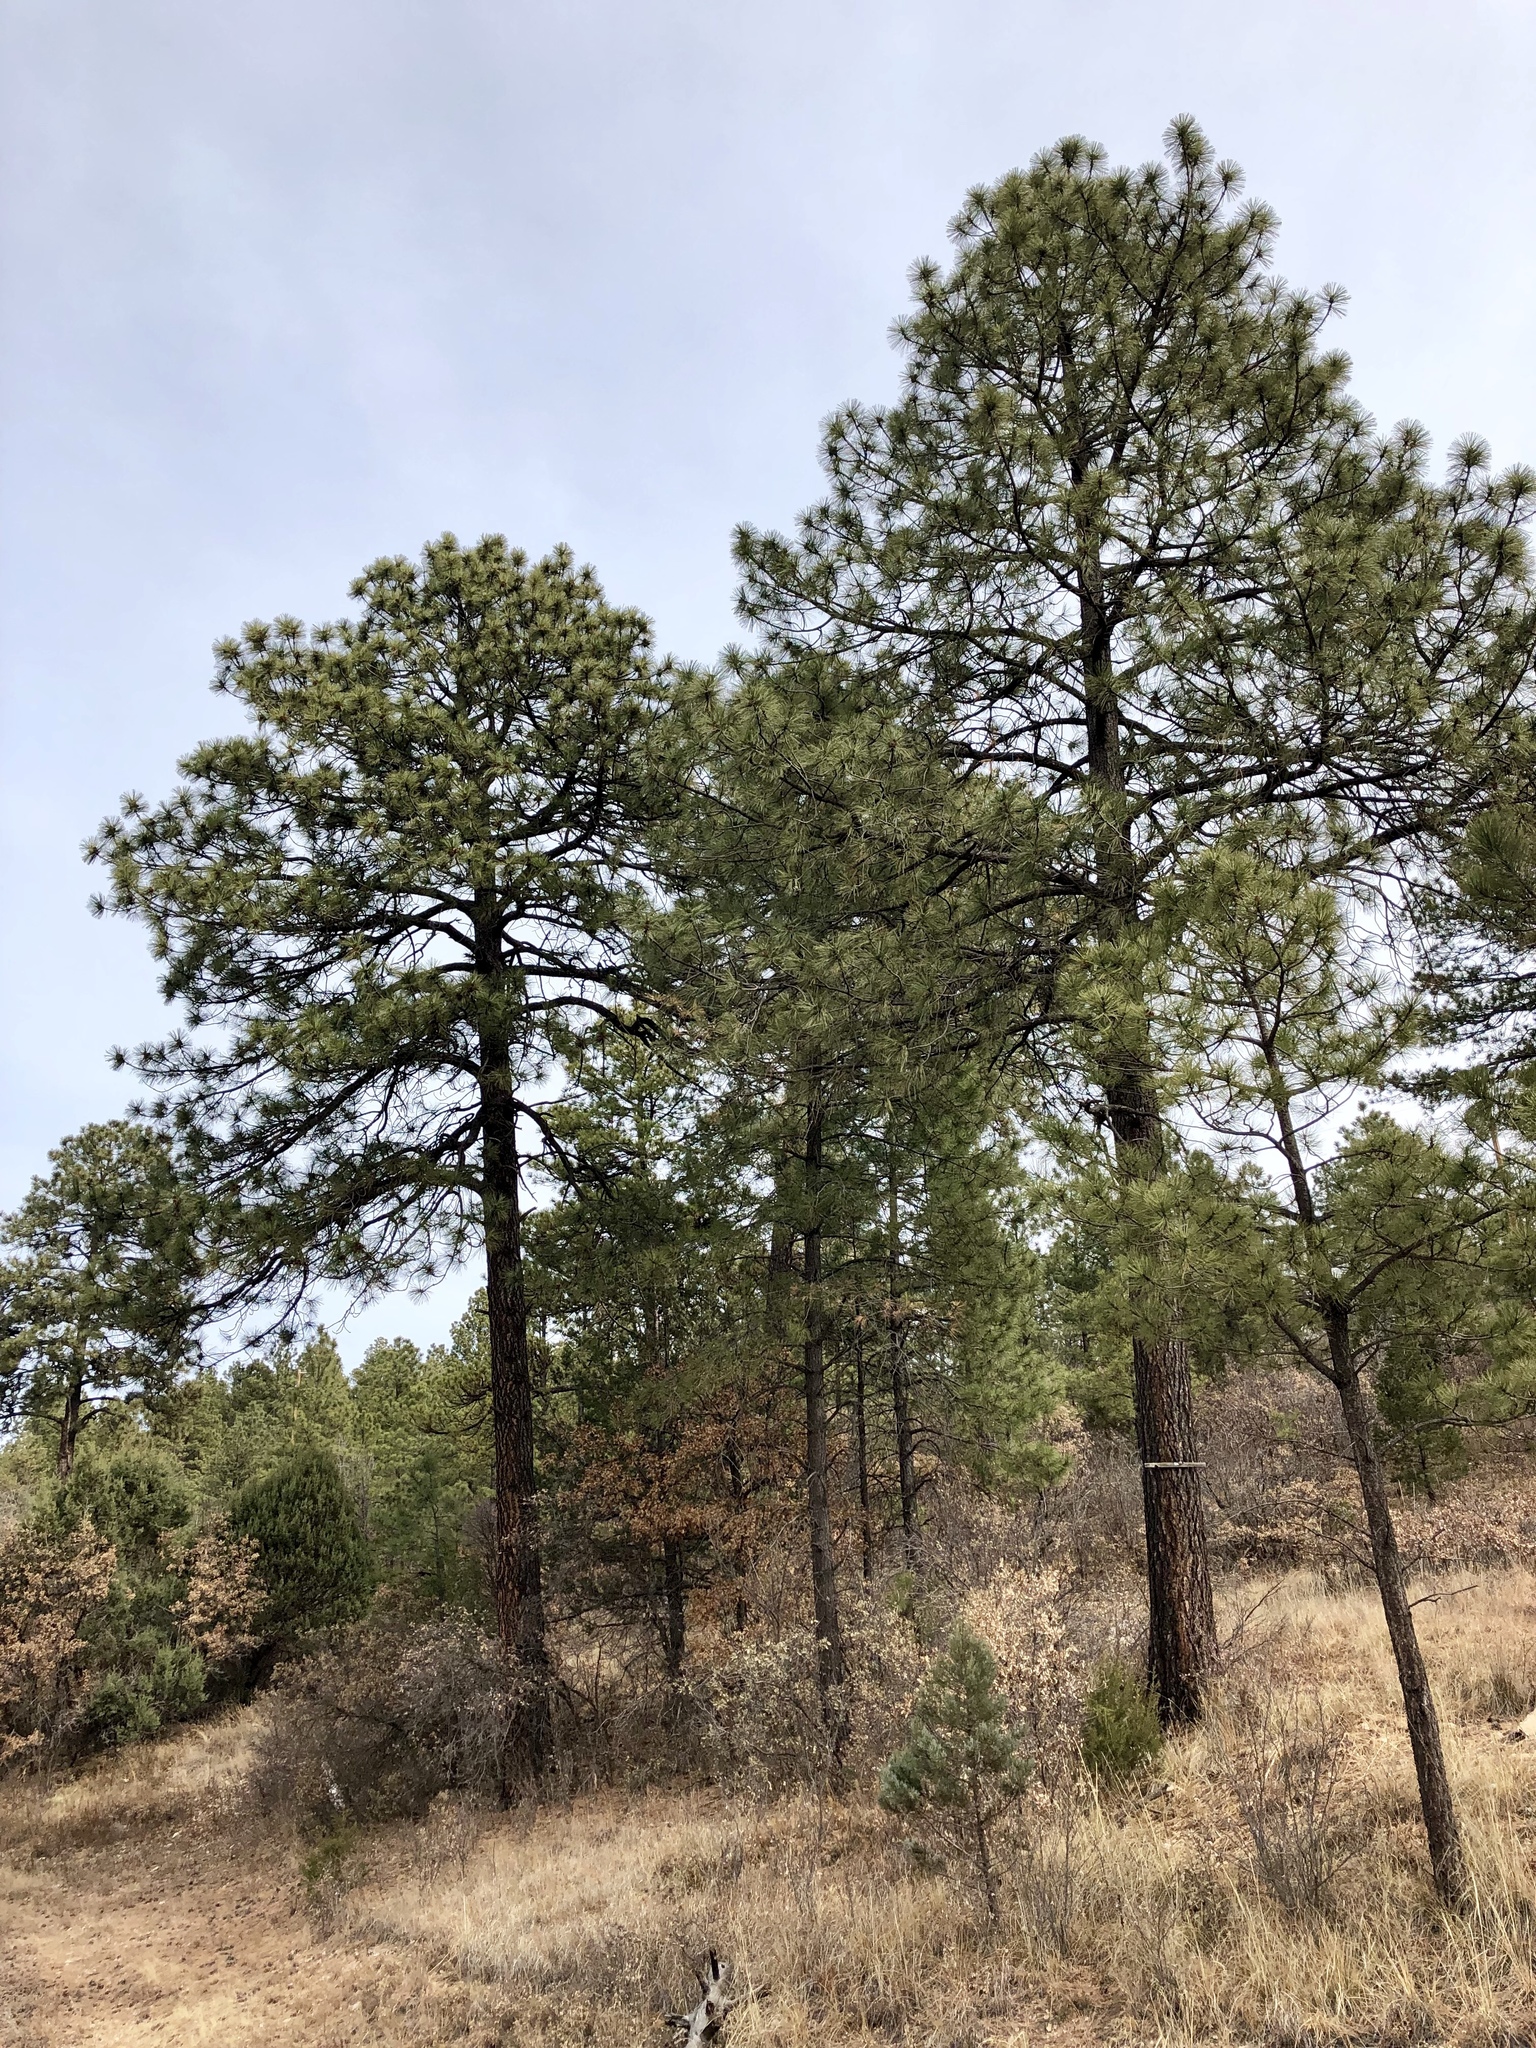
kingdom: Plantae
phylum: Tracheophyta
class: Pinopsida
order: Pinales
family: Pinaceae
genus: Pinus
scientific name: Pinus ponderosa
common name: Western yellow-pine
